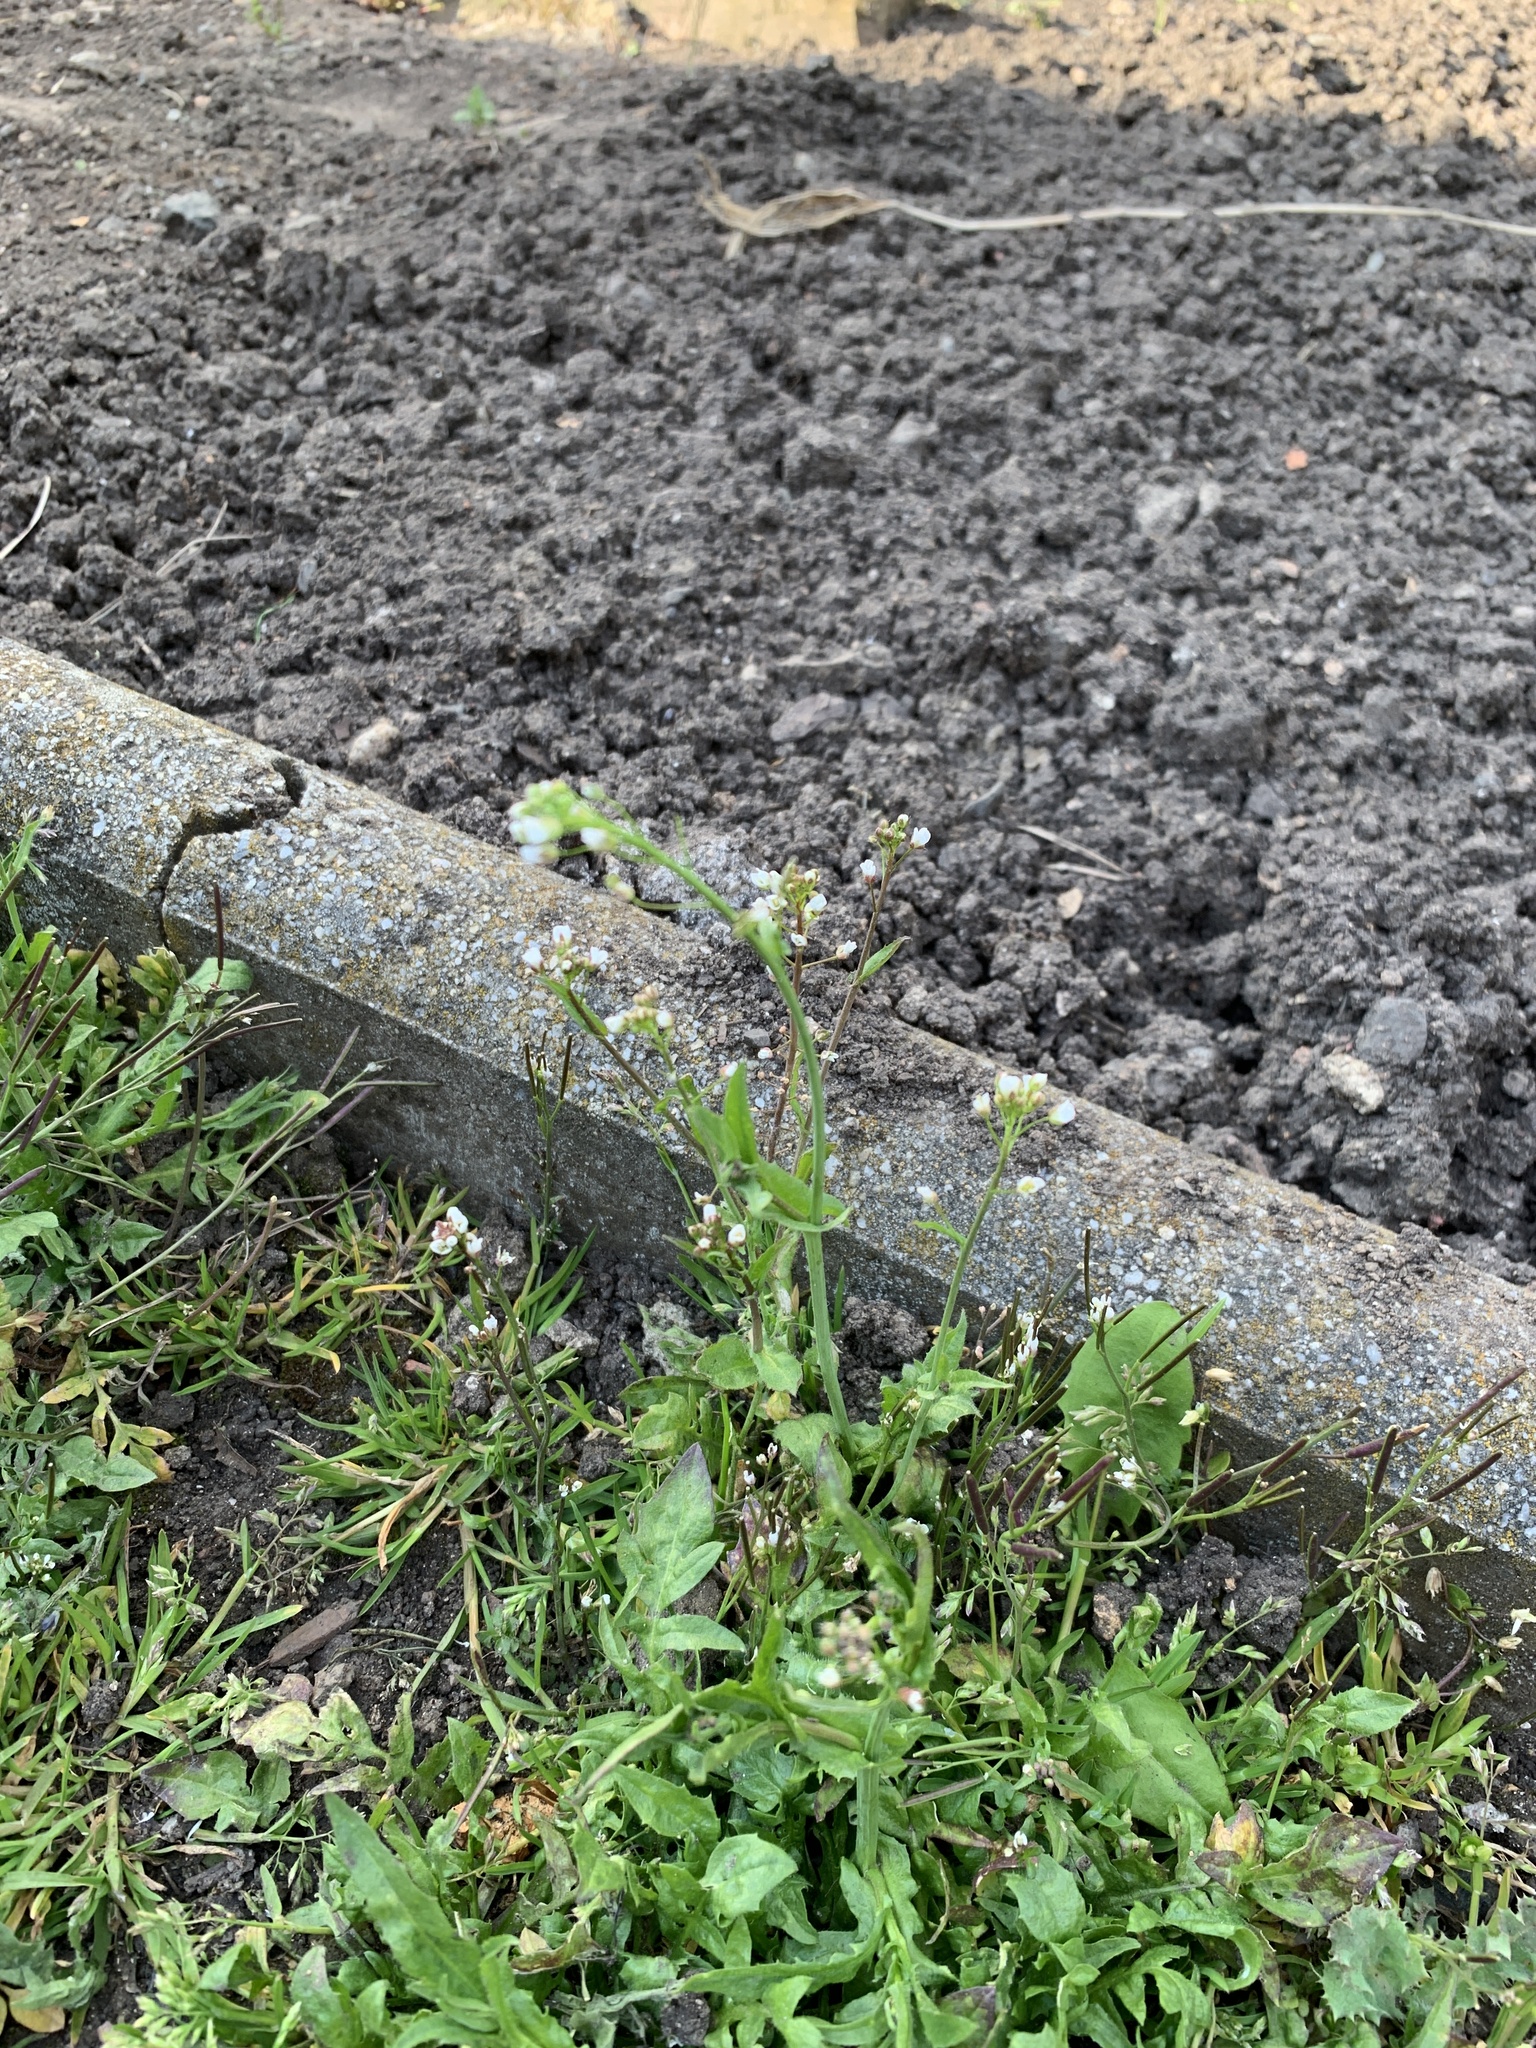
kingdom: Plantae
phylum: Tracheophyta
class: Magnoliopsida
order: Brassicales
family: Brassicaceae
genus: Capsella
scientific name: Capsella bursa-pastoris
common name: Shepherd's purse
